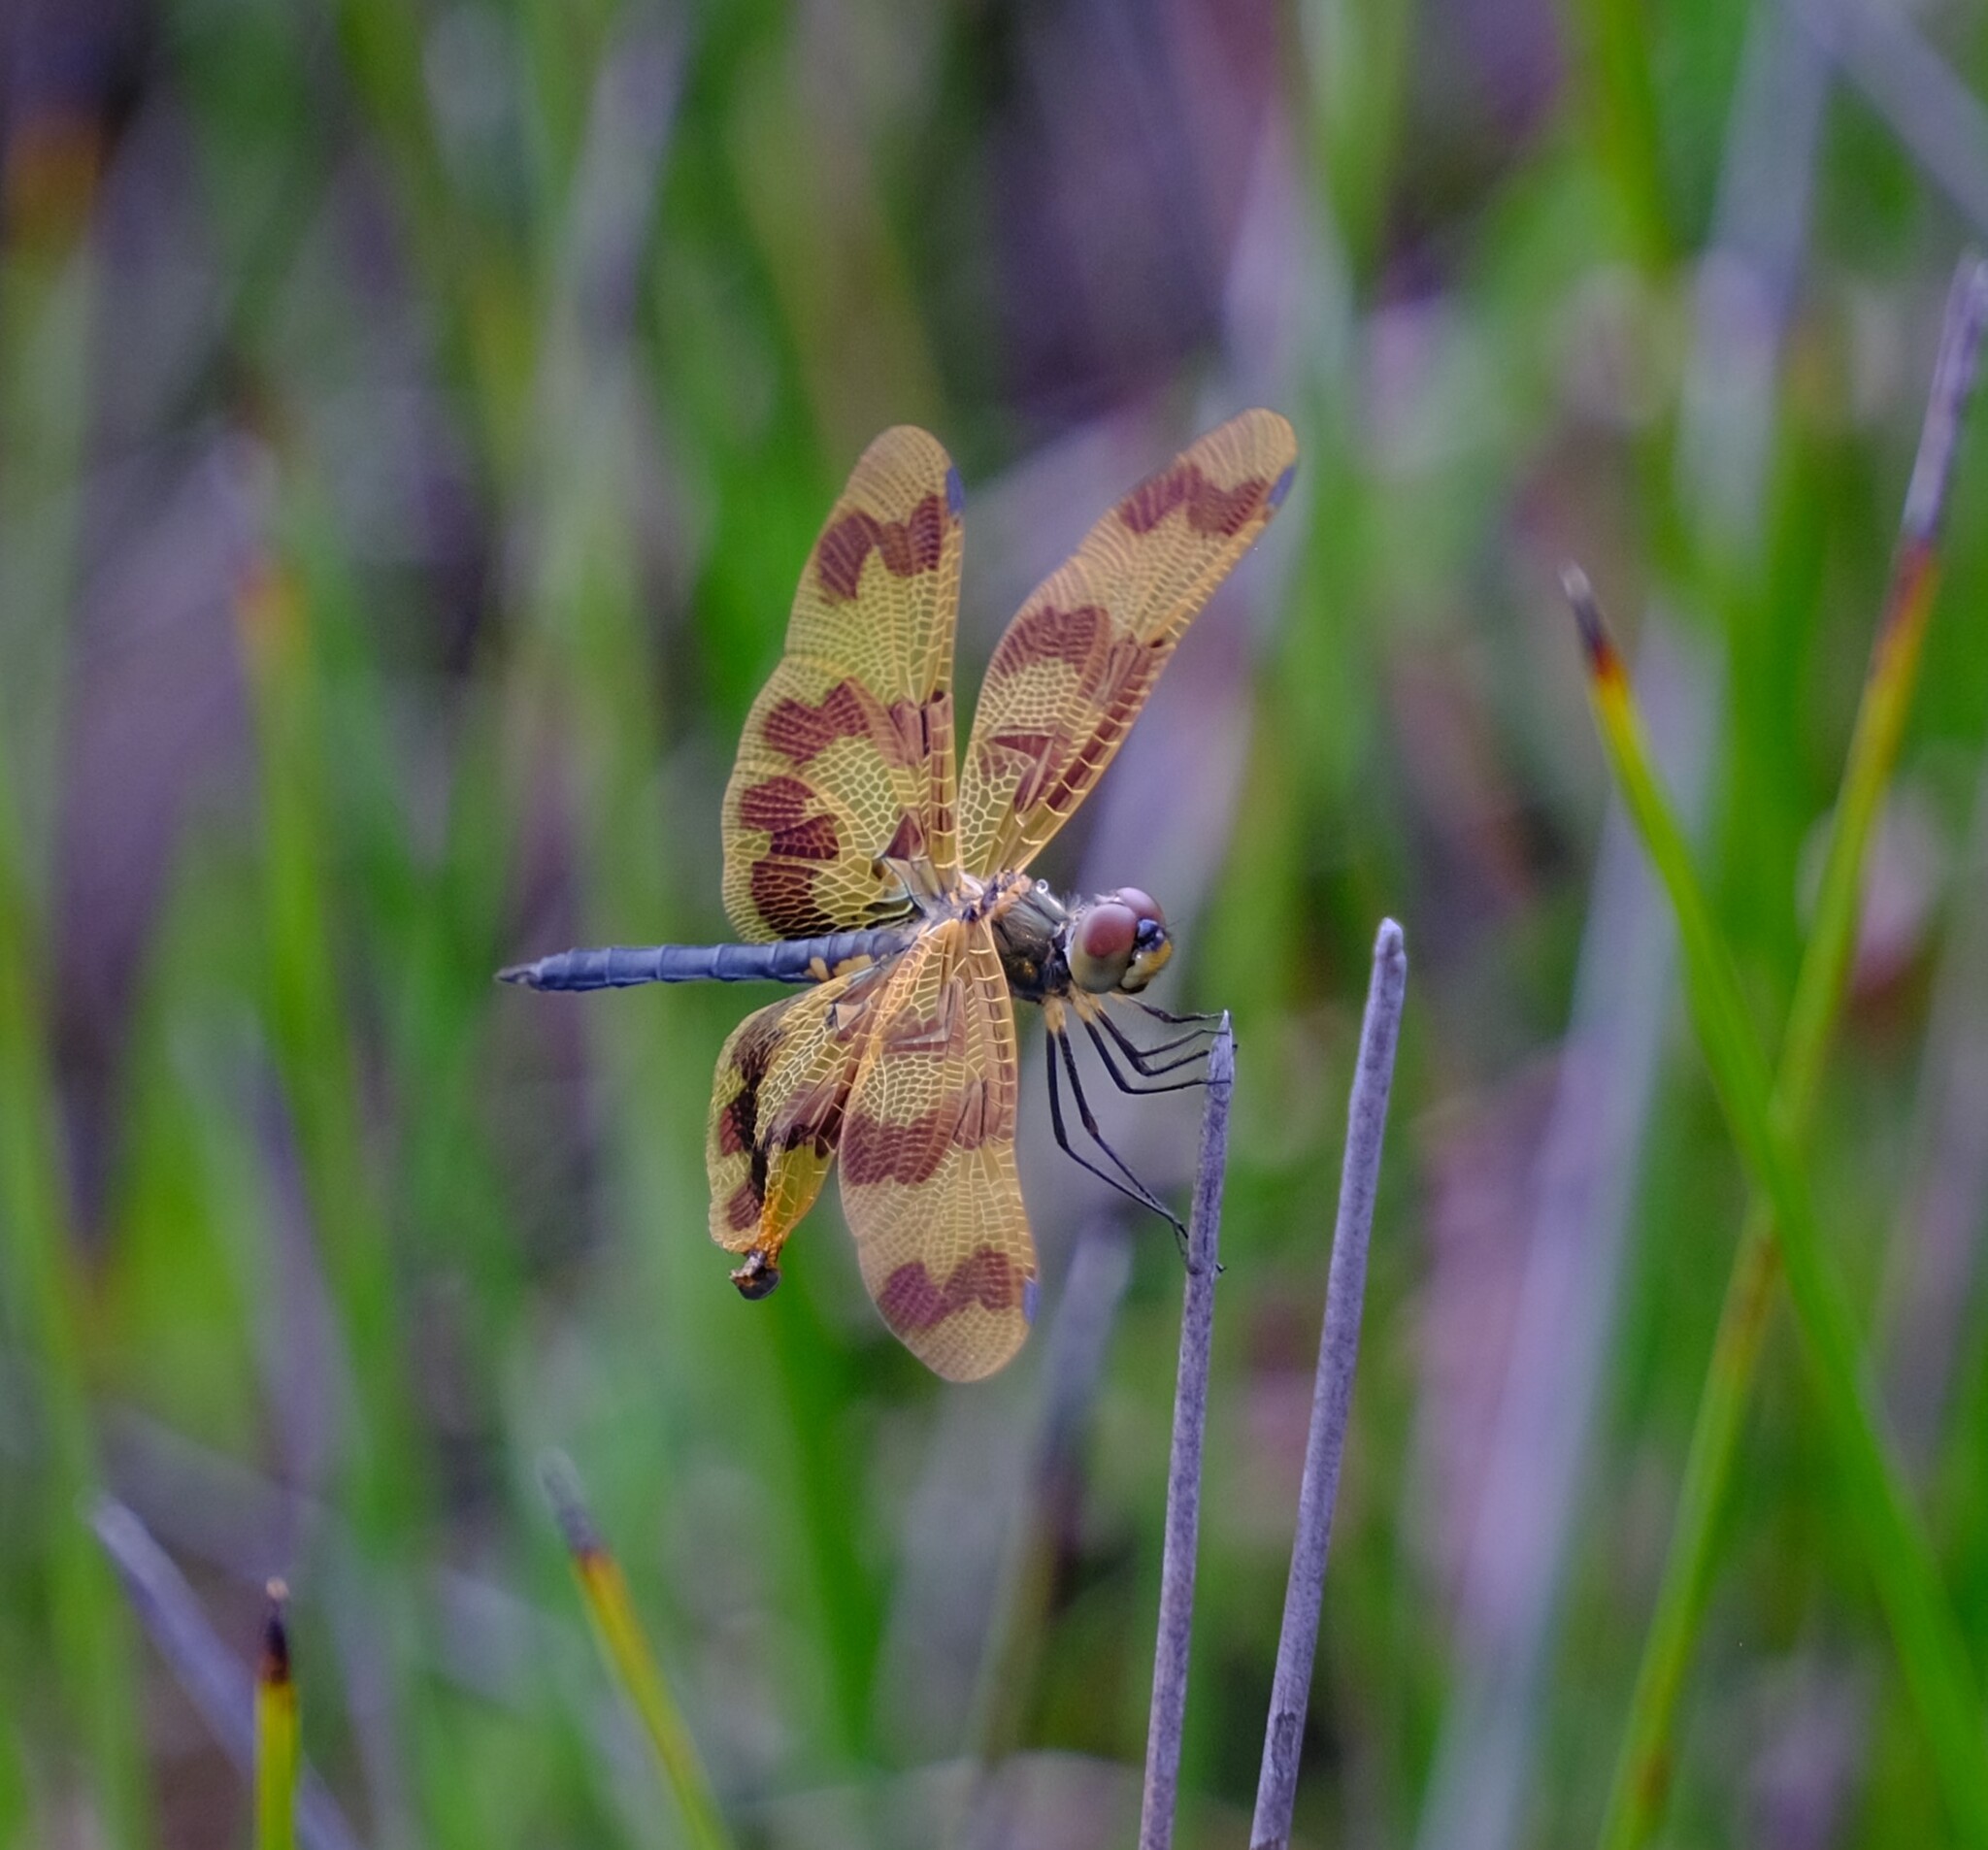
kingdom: Animalia
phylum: Arthropoda
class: Insecta
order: Odonata
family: Libellulidae
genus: Rhyothemis
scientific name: Rhyothemis graphiptera
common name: Graphic flutterer
